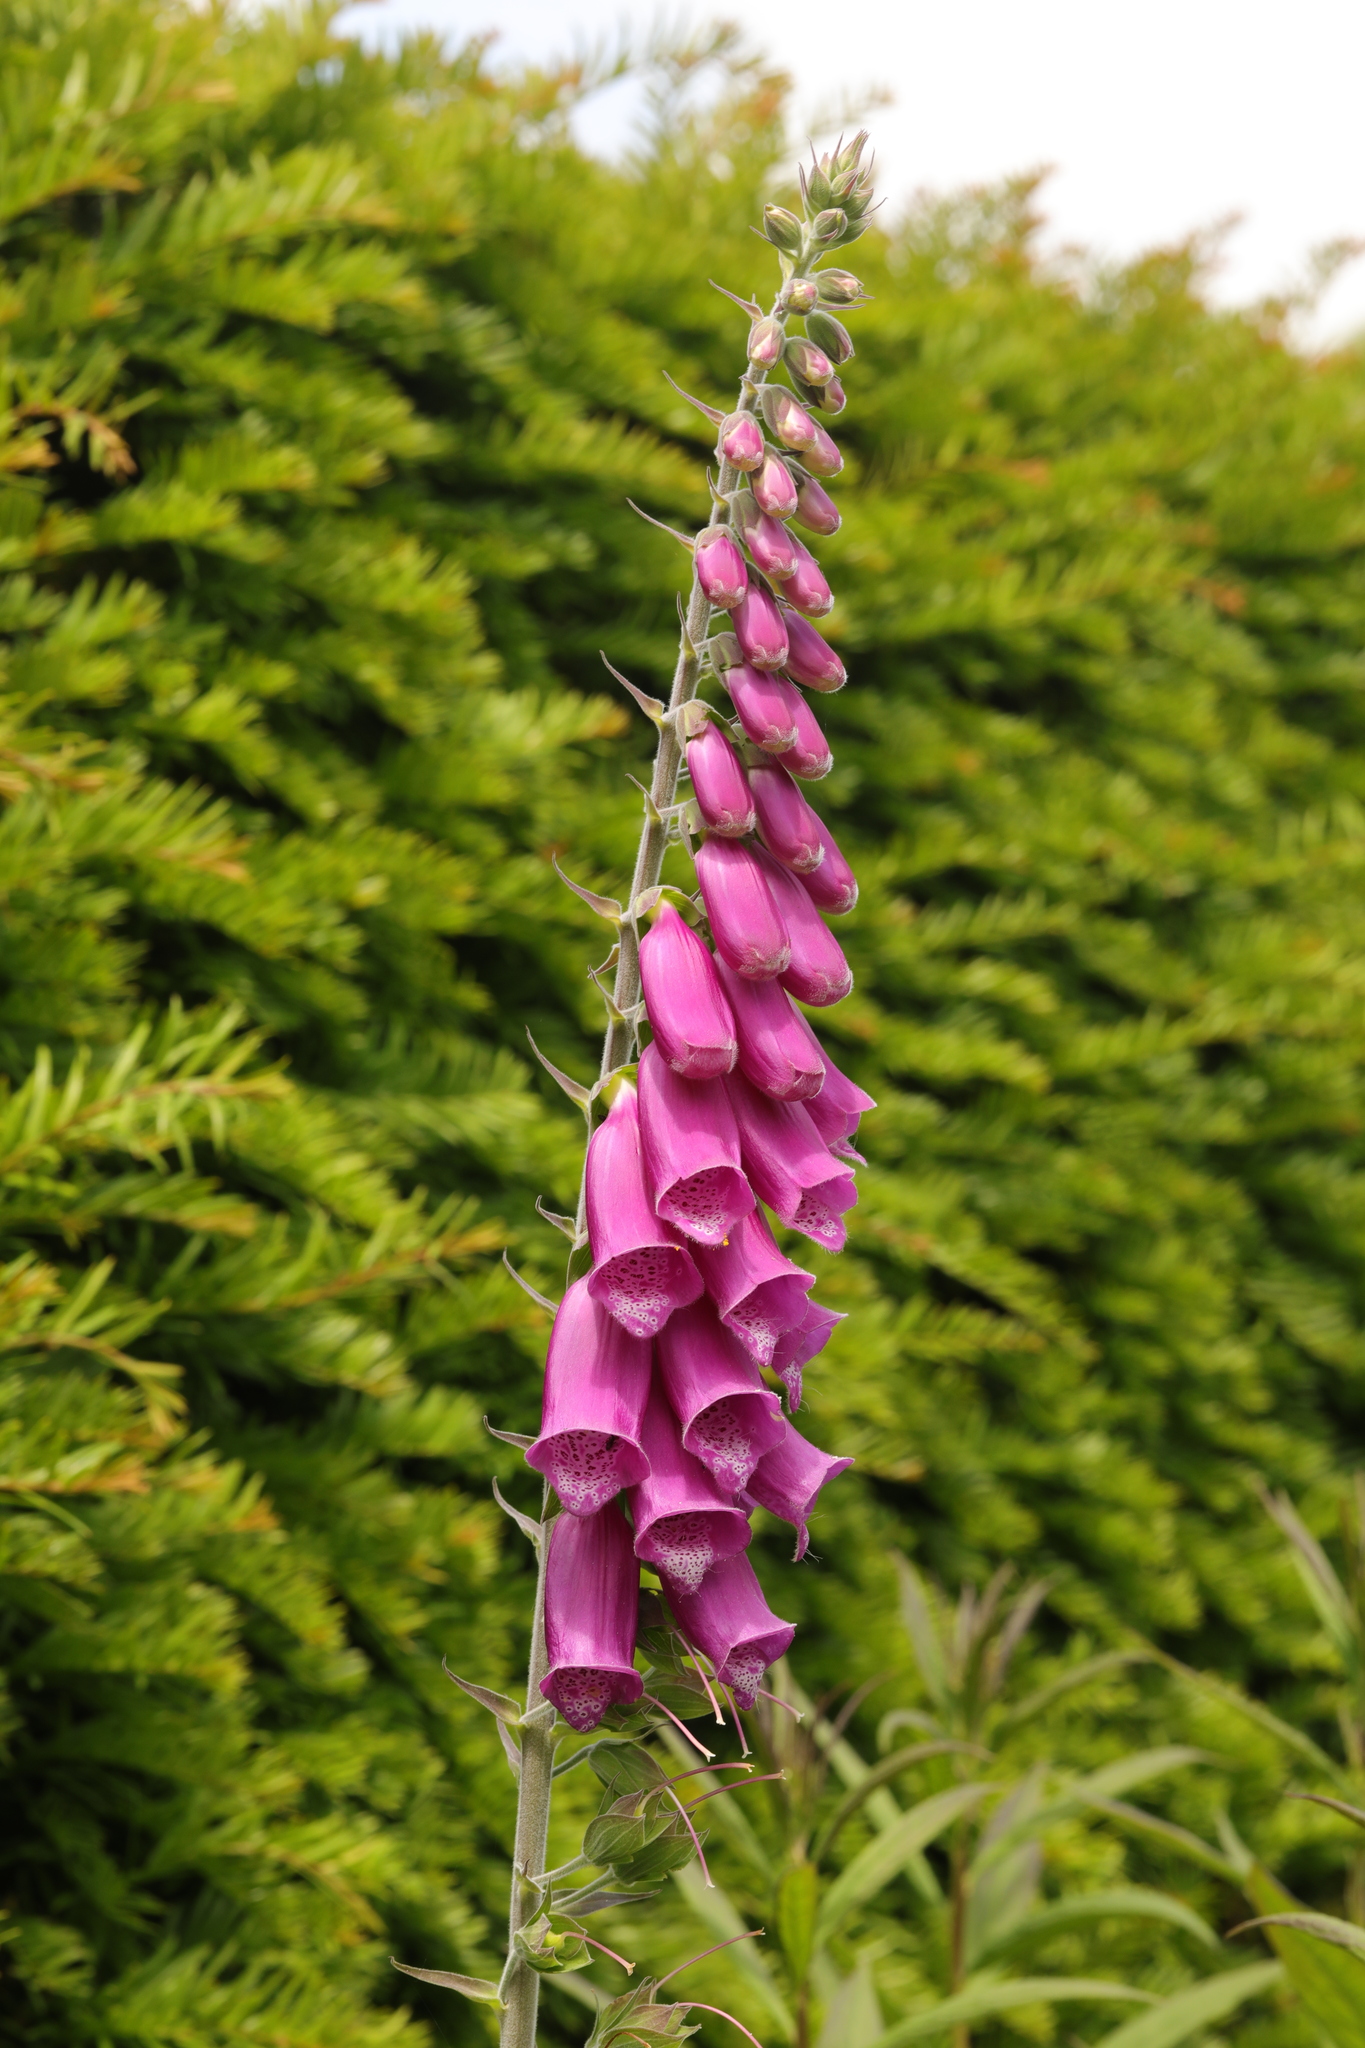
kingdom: Plantae
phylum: Tracheophyta
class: Magnoliopsida
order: Lamiales
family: Plantaginaceae
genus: Digitalis
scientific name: Digitalis purpurea
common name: Foxglove
